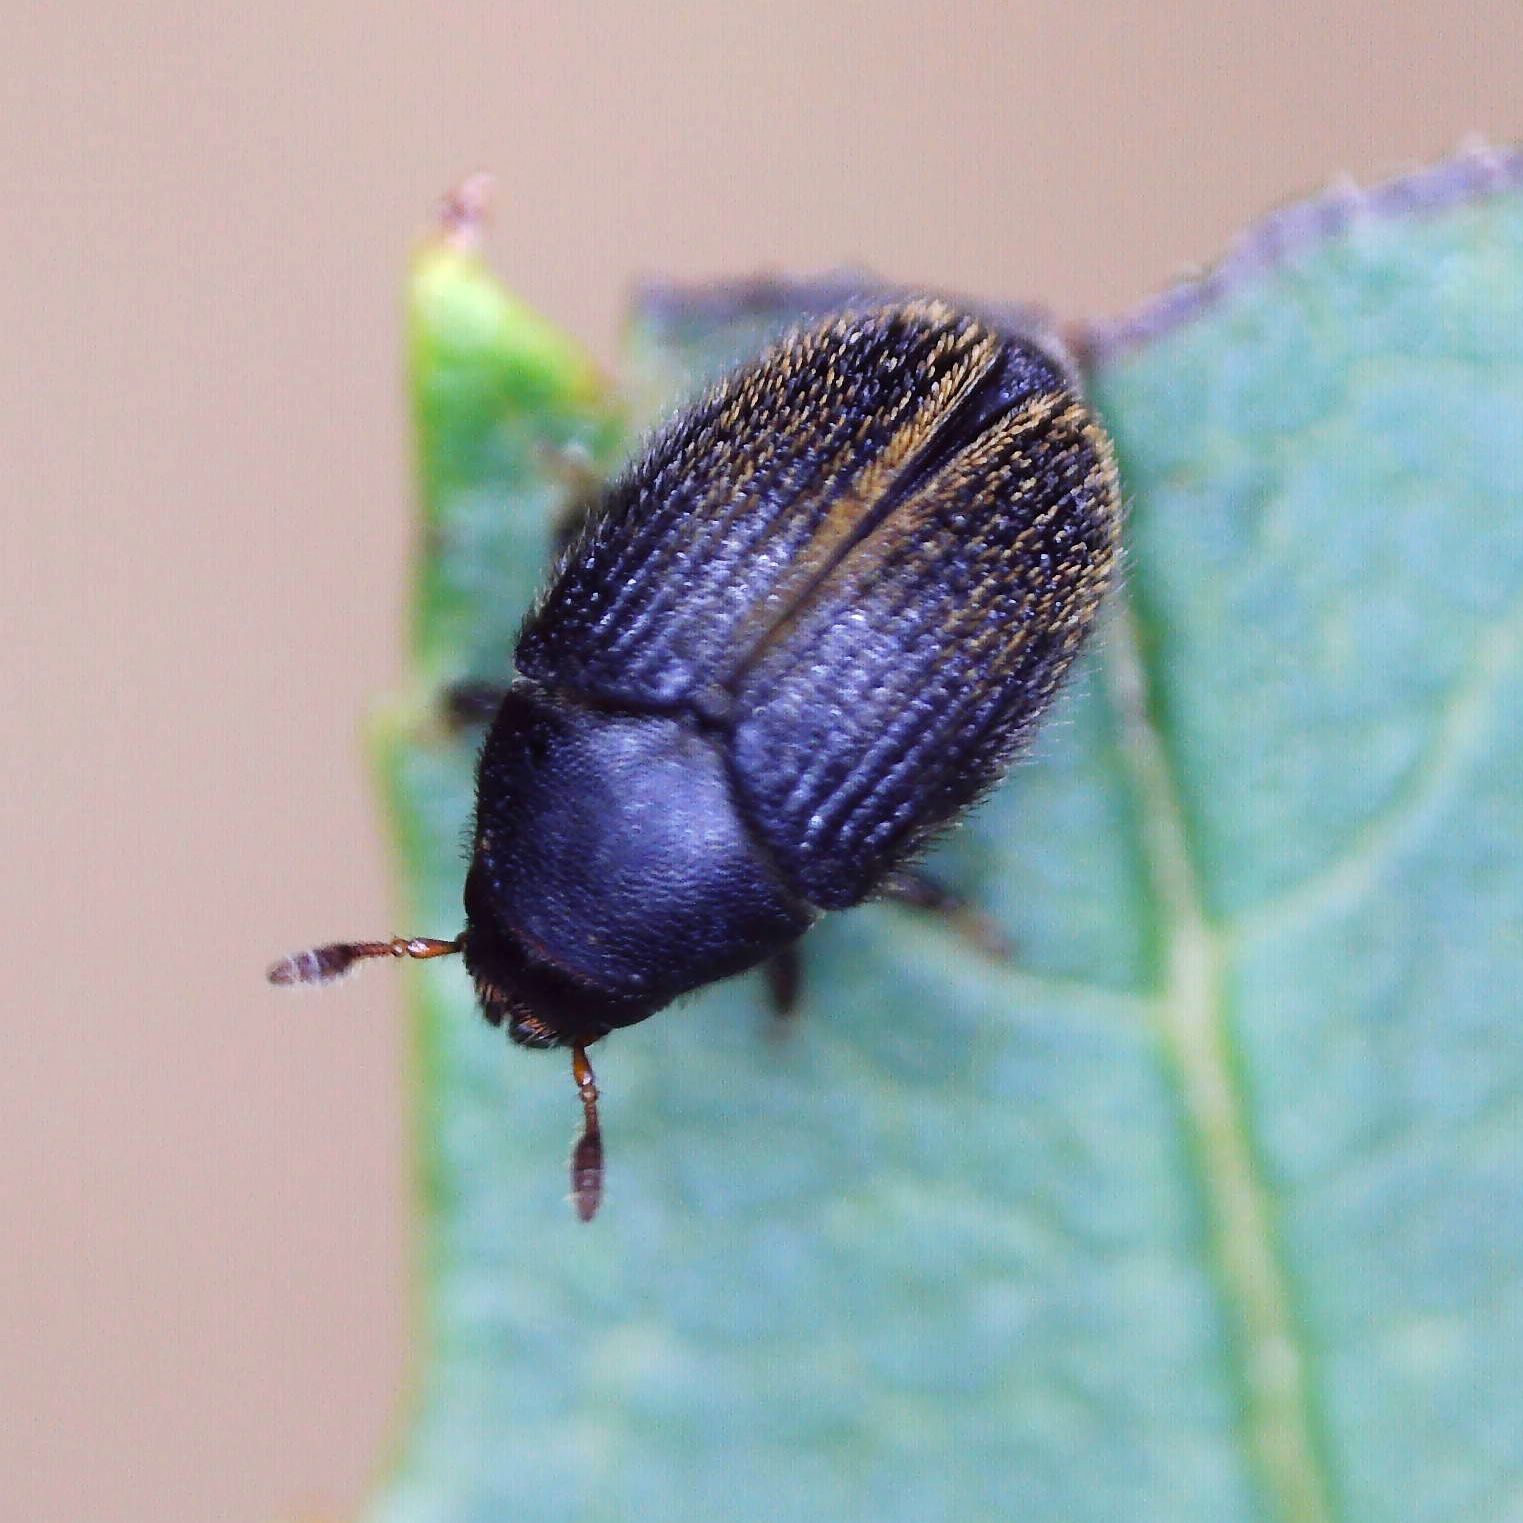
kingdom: Animalia
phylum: Arthropoda
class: Insecta
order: Coleoptera
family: Curculionidae
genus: Hylesinus
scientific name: Hylesinus toranio
